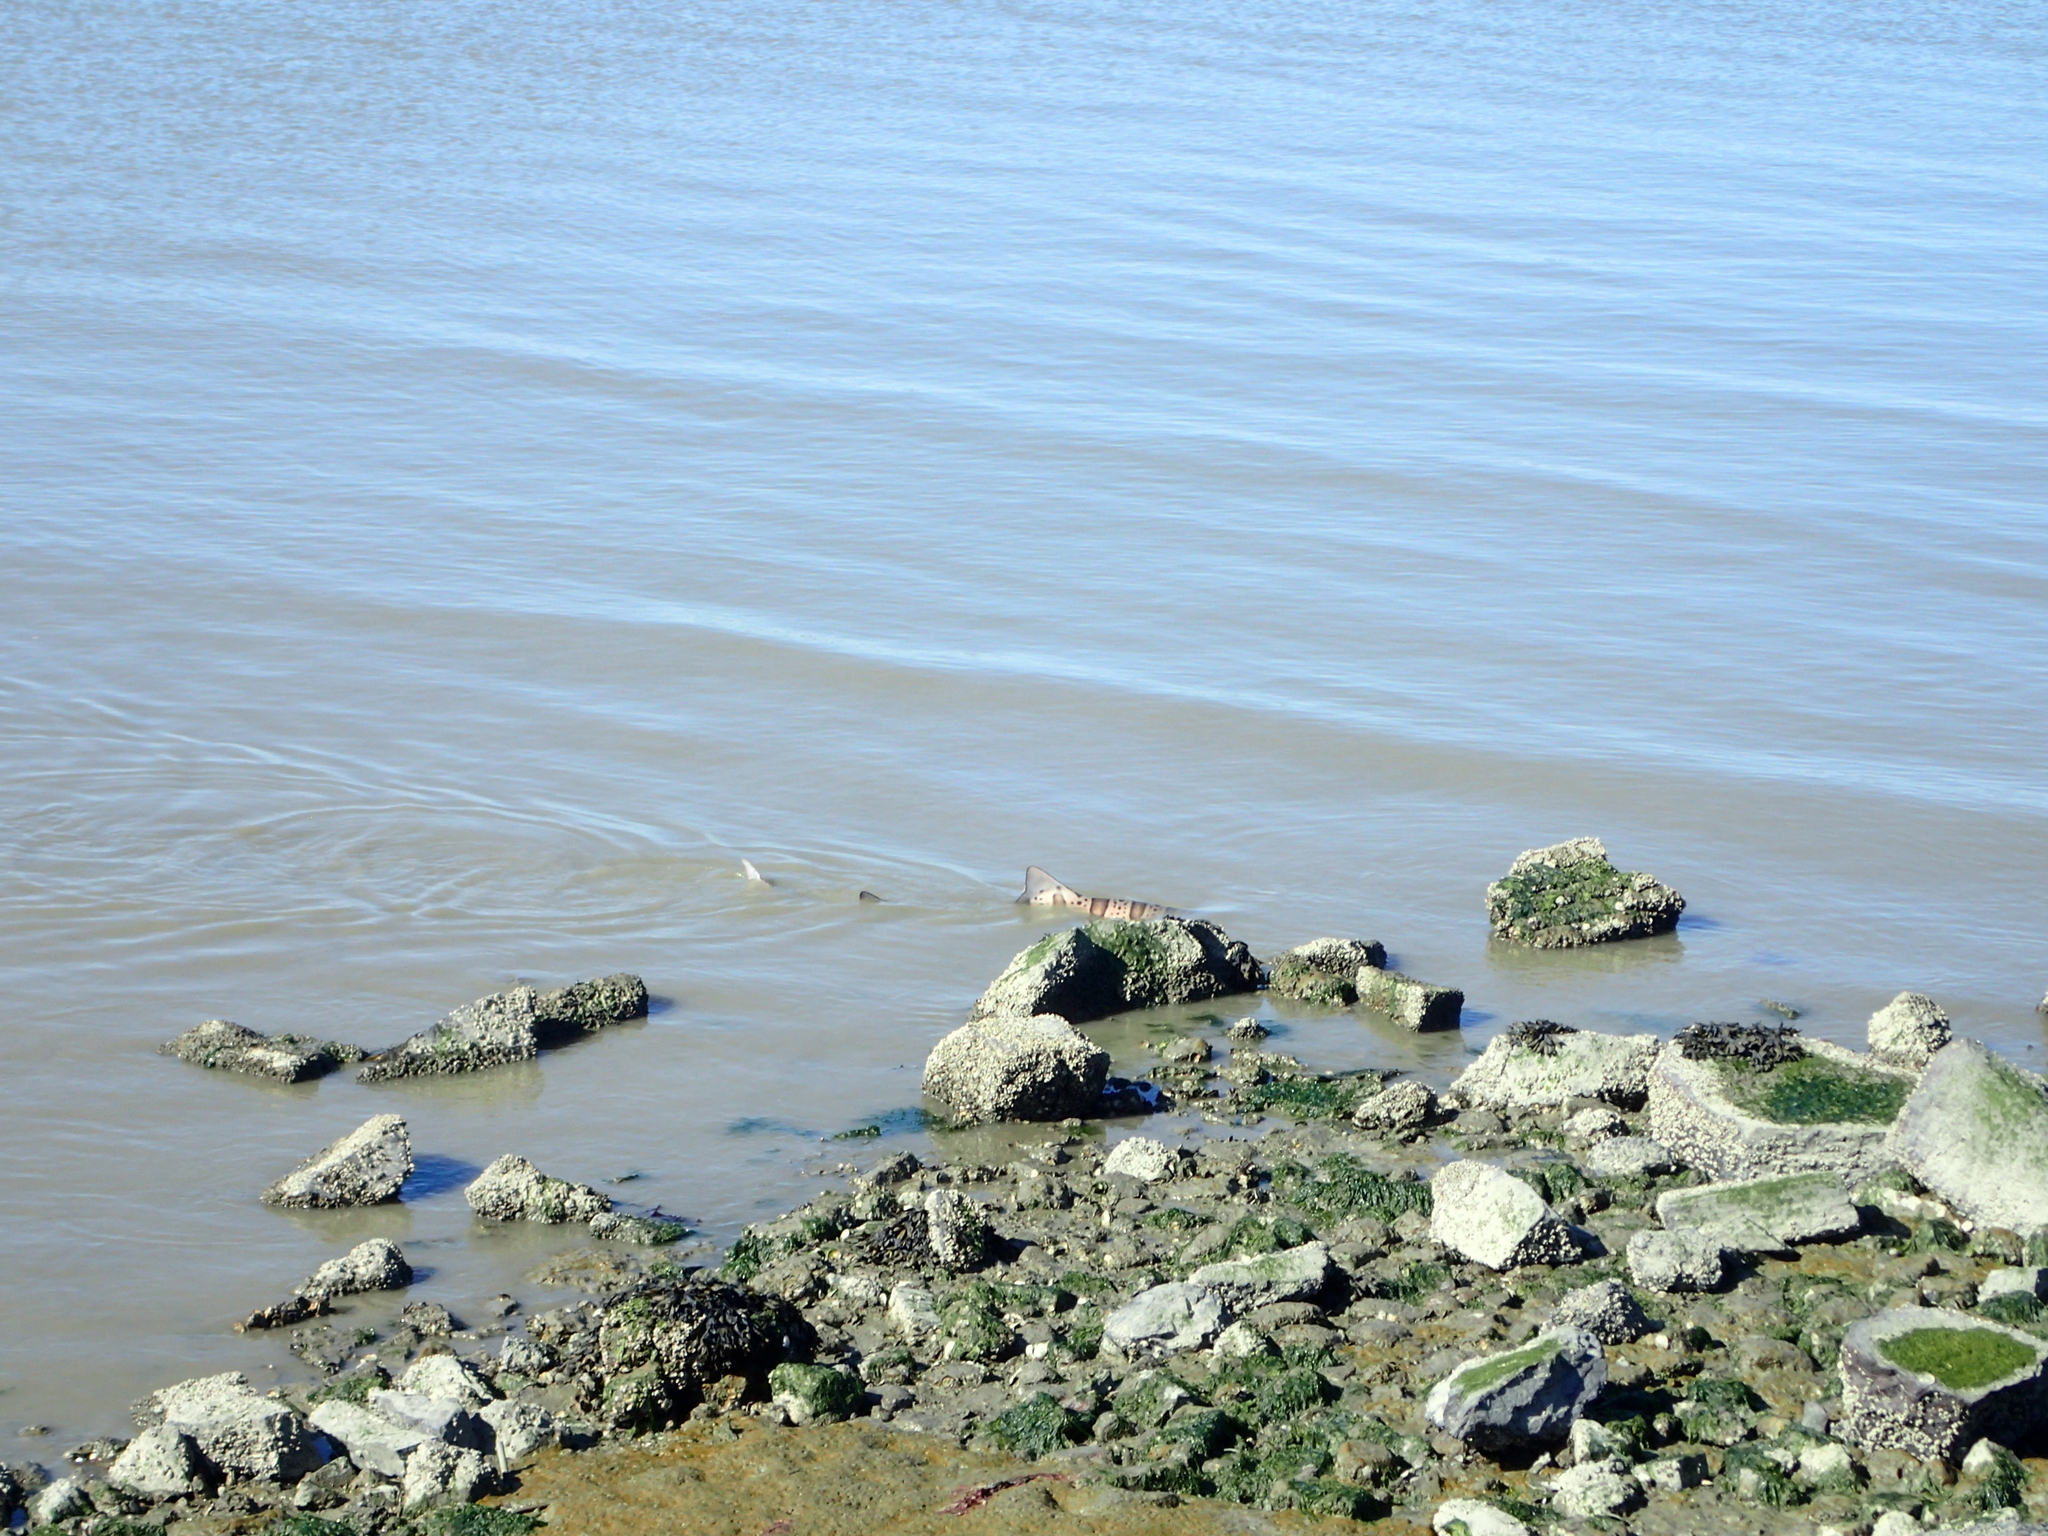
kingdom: Animalia
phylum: Chordata
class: Elasmobranchii
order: Carcharhiniformes
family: Triakidae
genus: Triakis
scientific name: Triakis semifasciata
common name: Leopard shark
